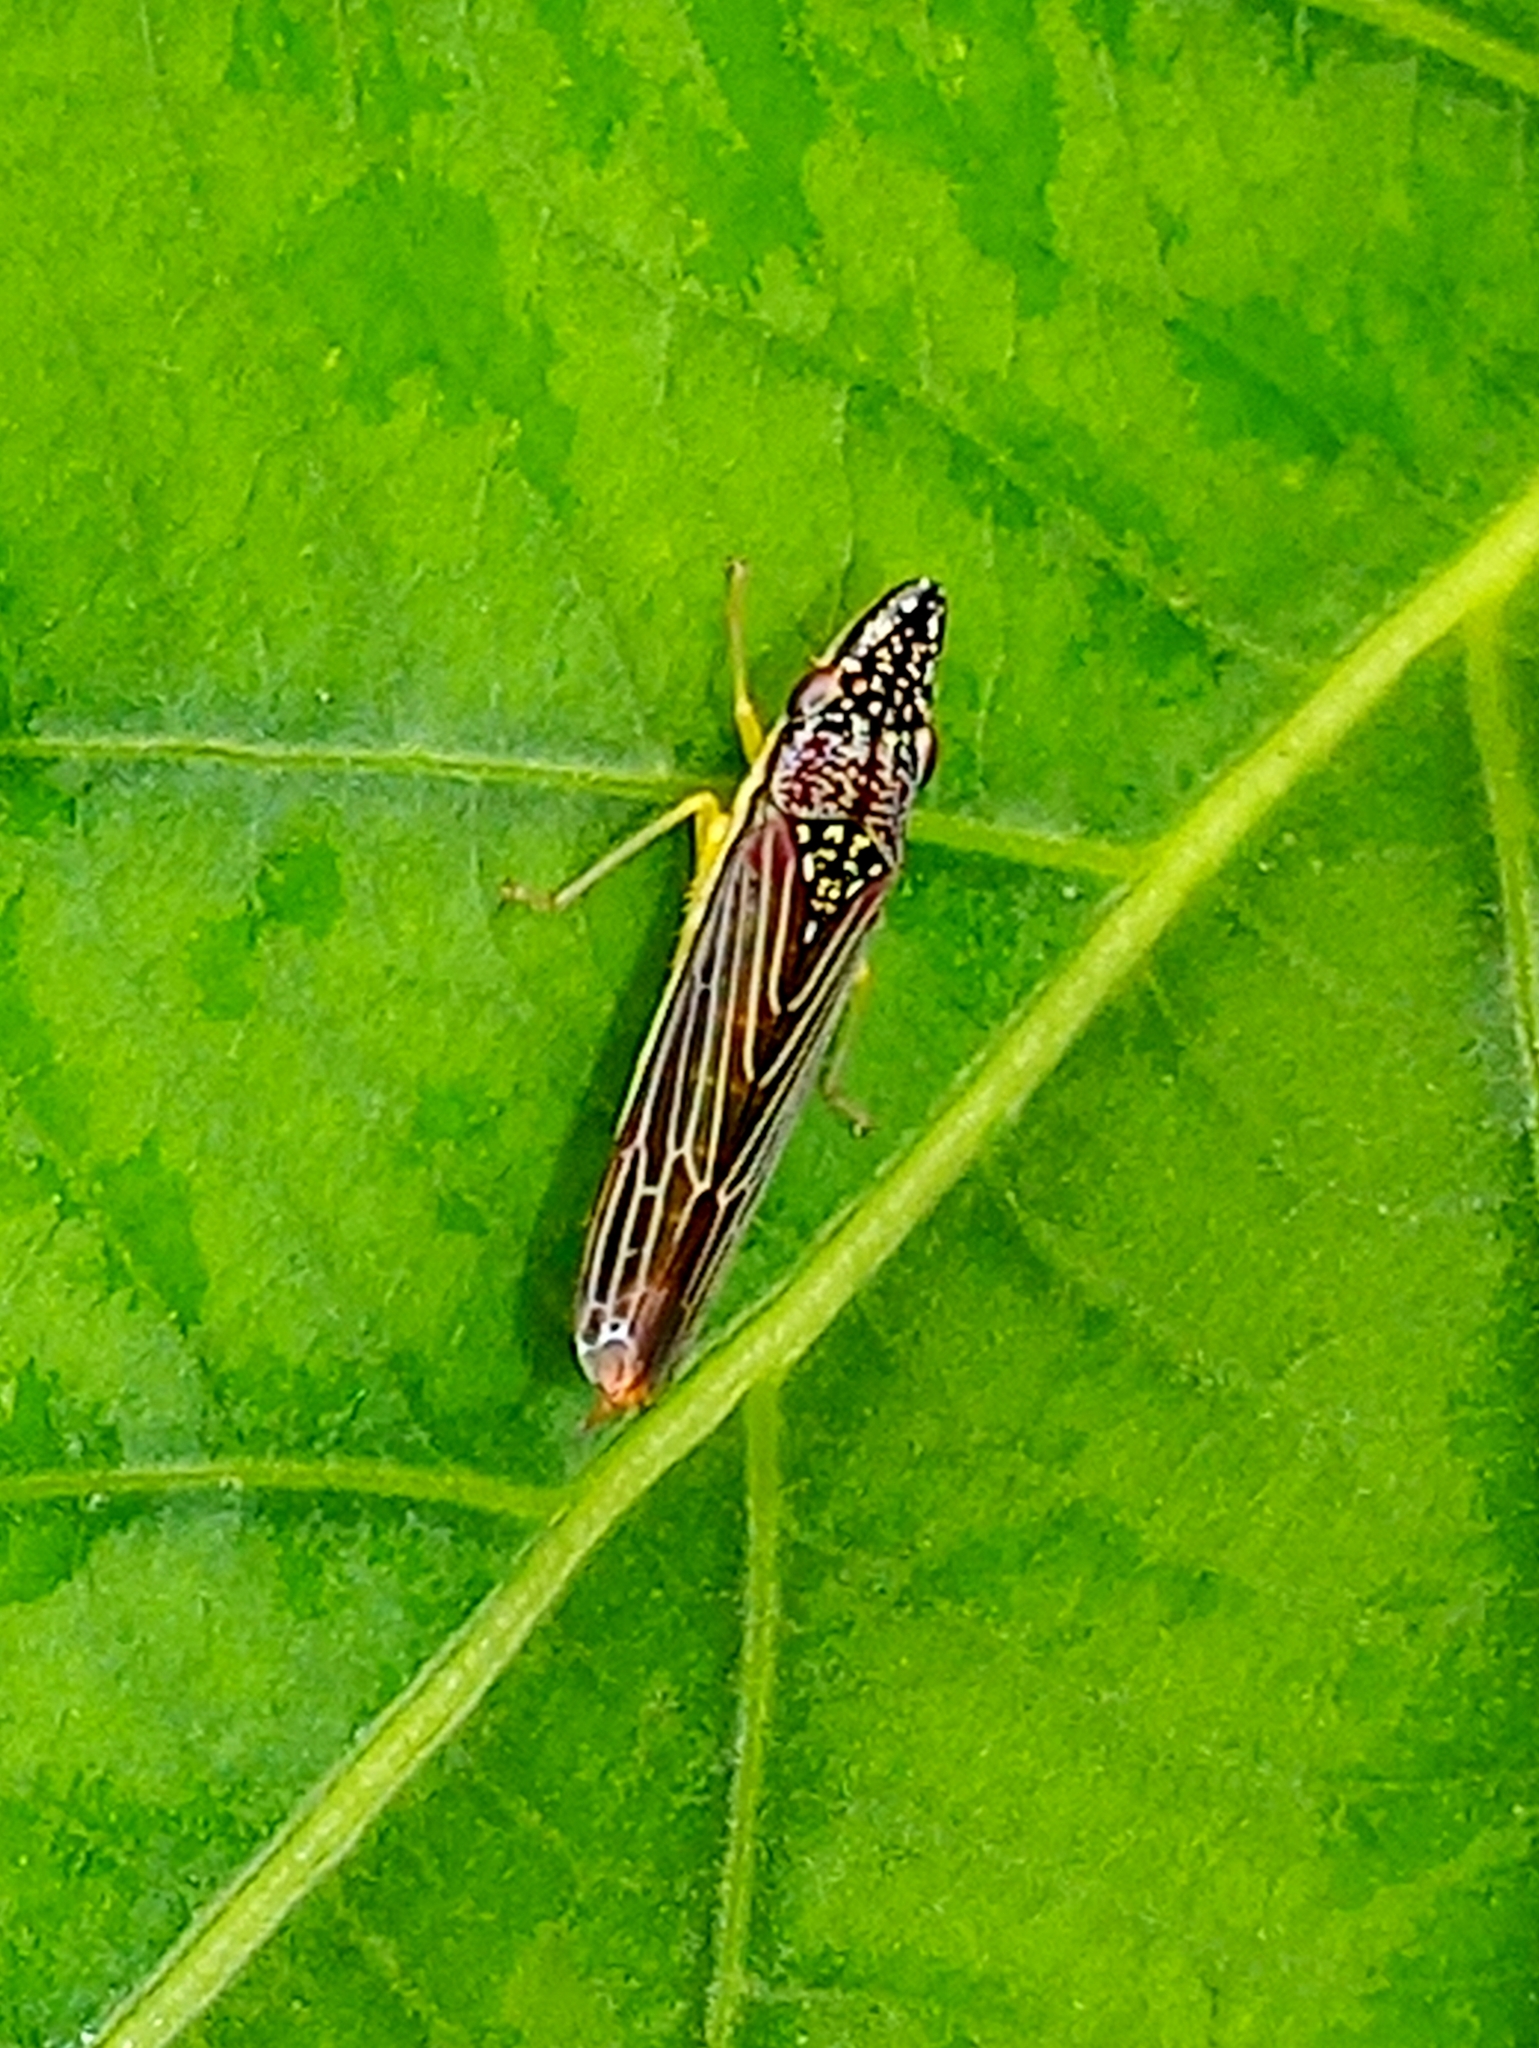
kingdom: Animalia
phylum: Arthropoda
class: Insecta
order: Hemiptera
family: Cicadellidae
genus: Acrogonia
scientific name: Acrogonia citrina
